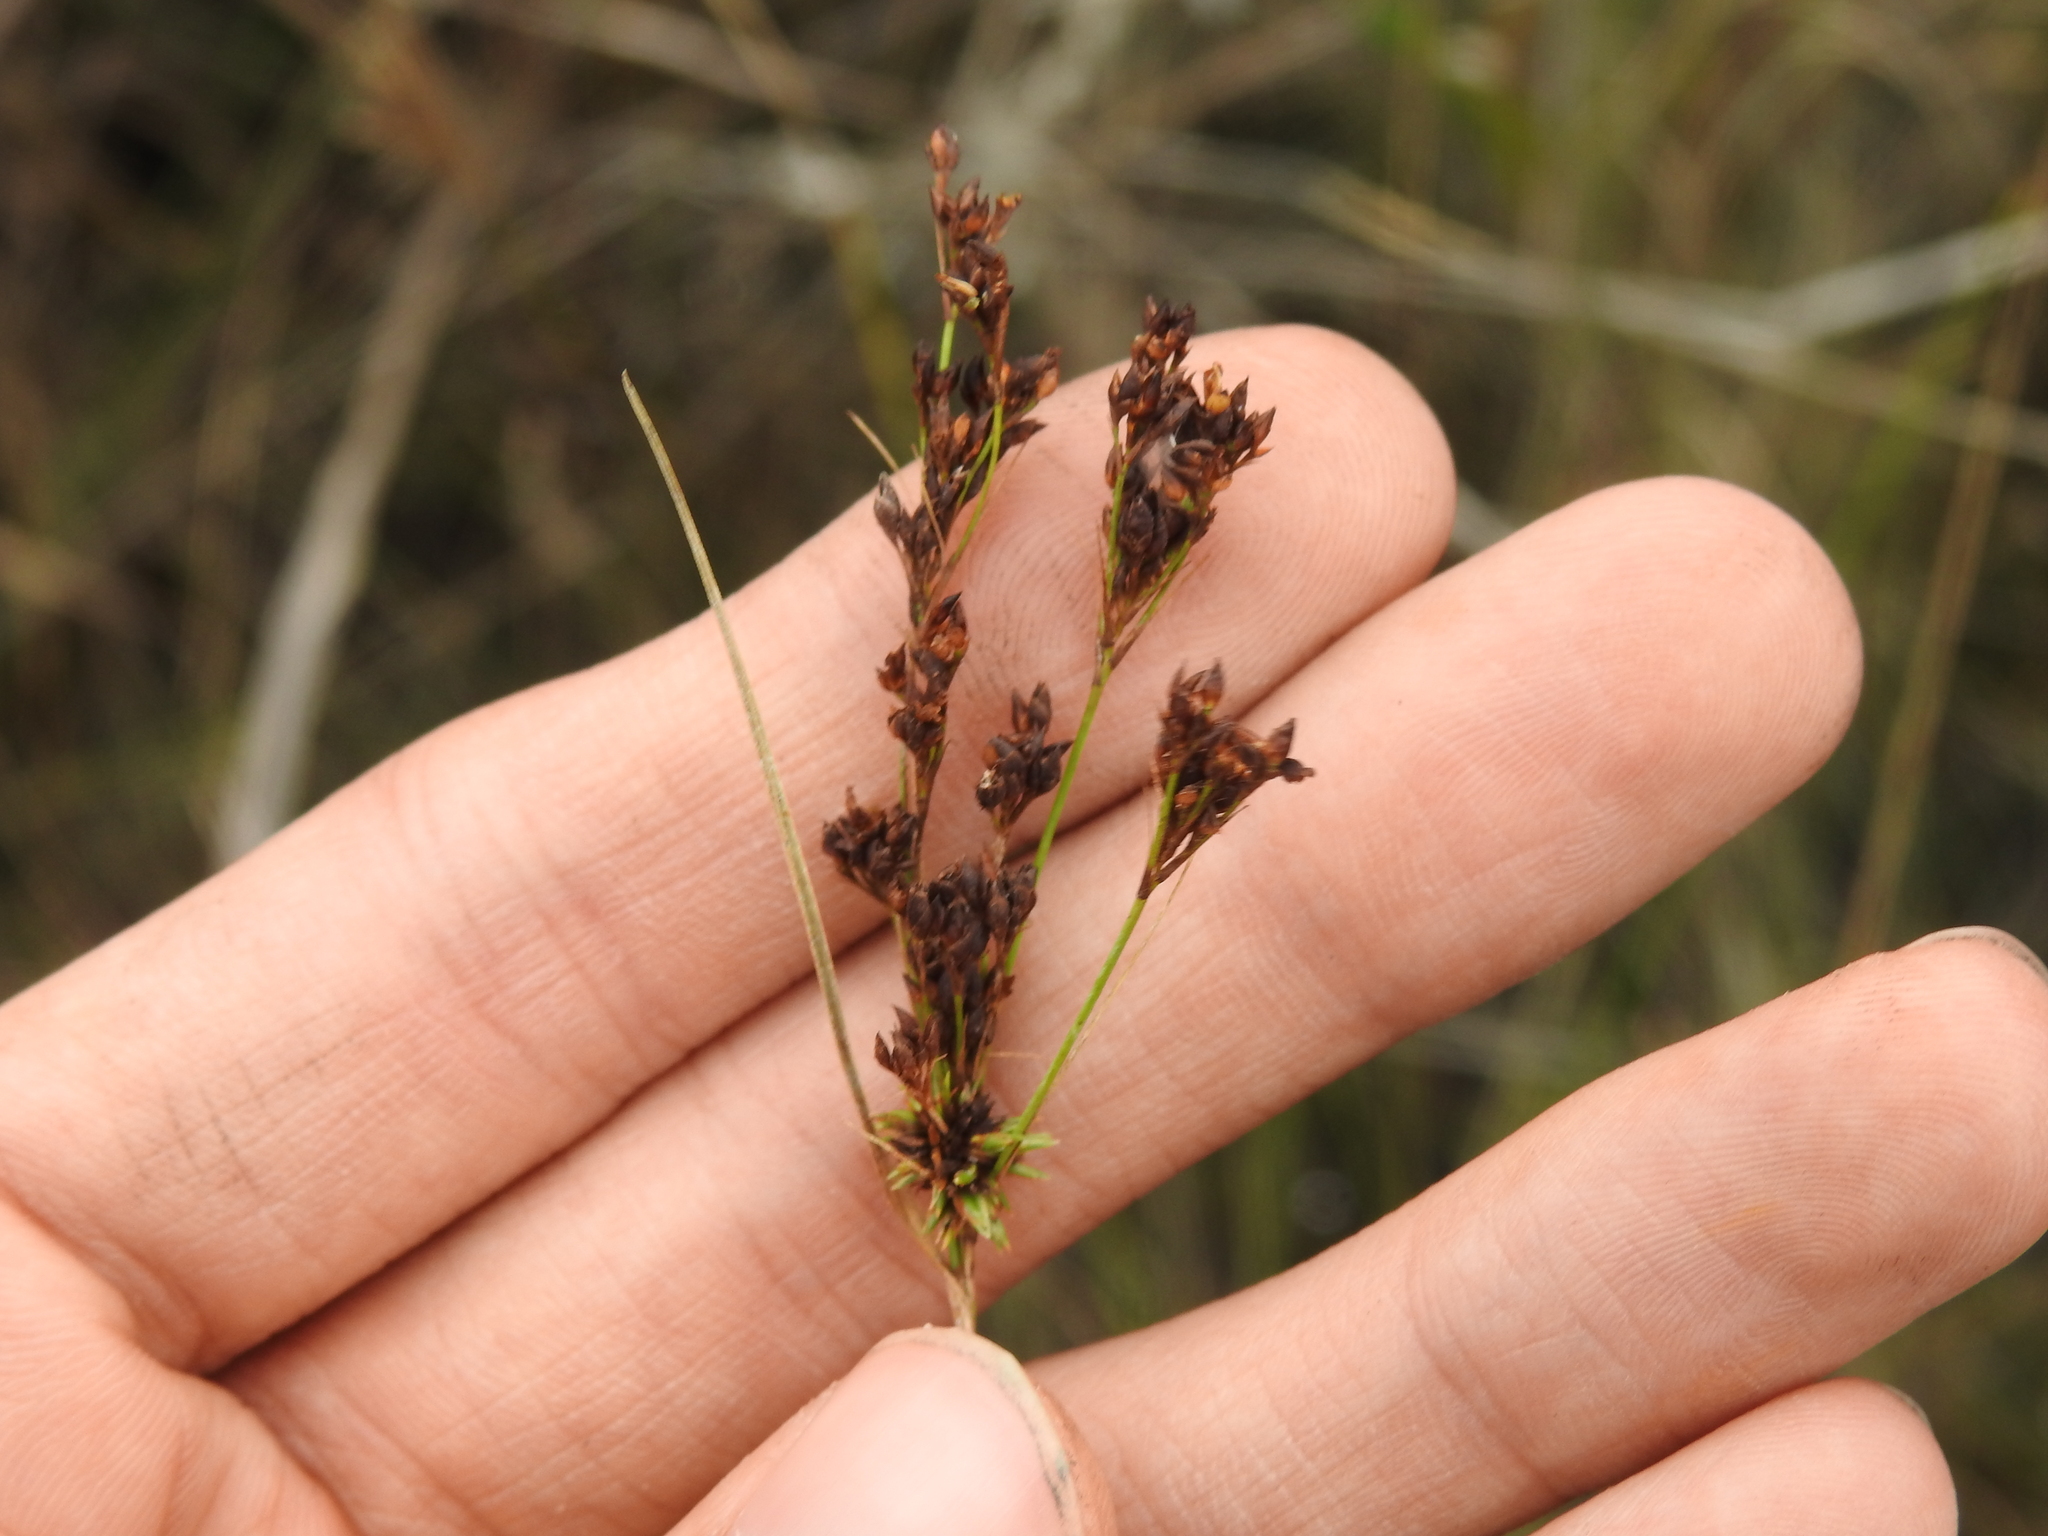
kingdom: Plantae
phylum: Tracheophyta
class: Liliopsida
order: Poales
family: Cyperaceae
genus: Rhynchospora
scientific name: Rhynchospora microcarpa
